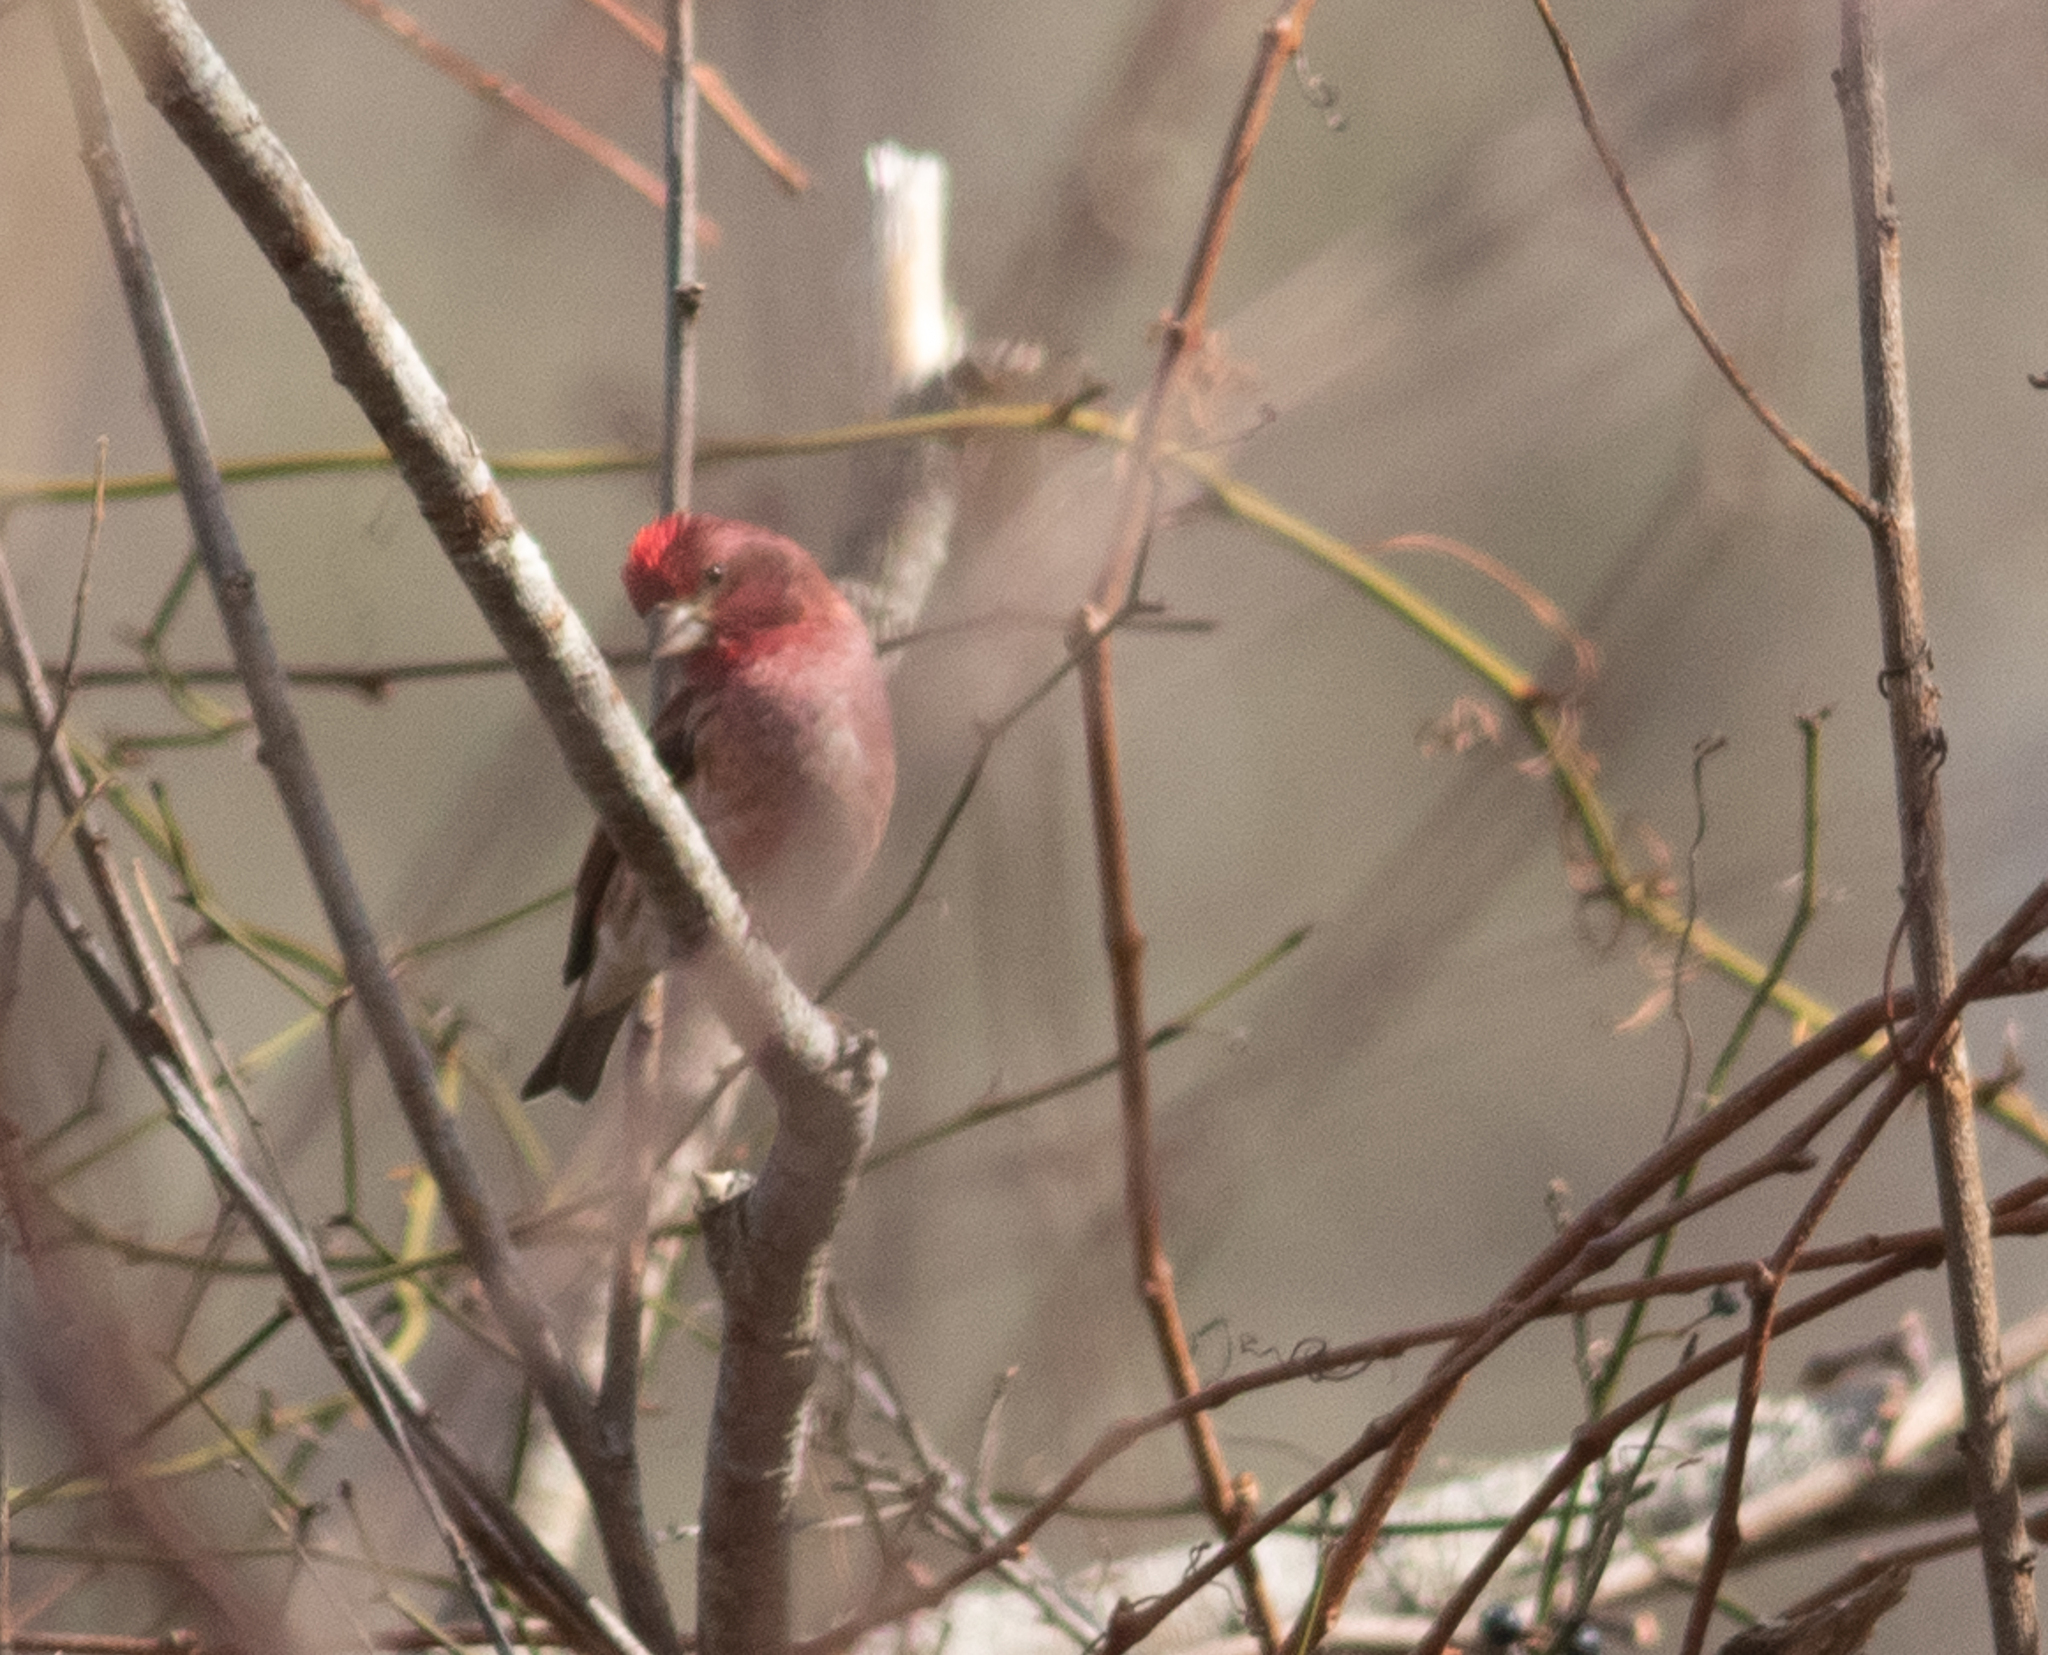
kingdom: Animalia
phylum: Chordata
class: Aves
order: Passeriformes
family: Fringillidae
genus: Haemorhous
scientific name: Haemorhous purpureus
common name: Purple finch
